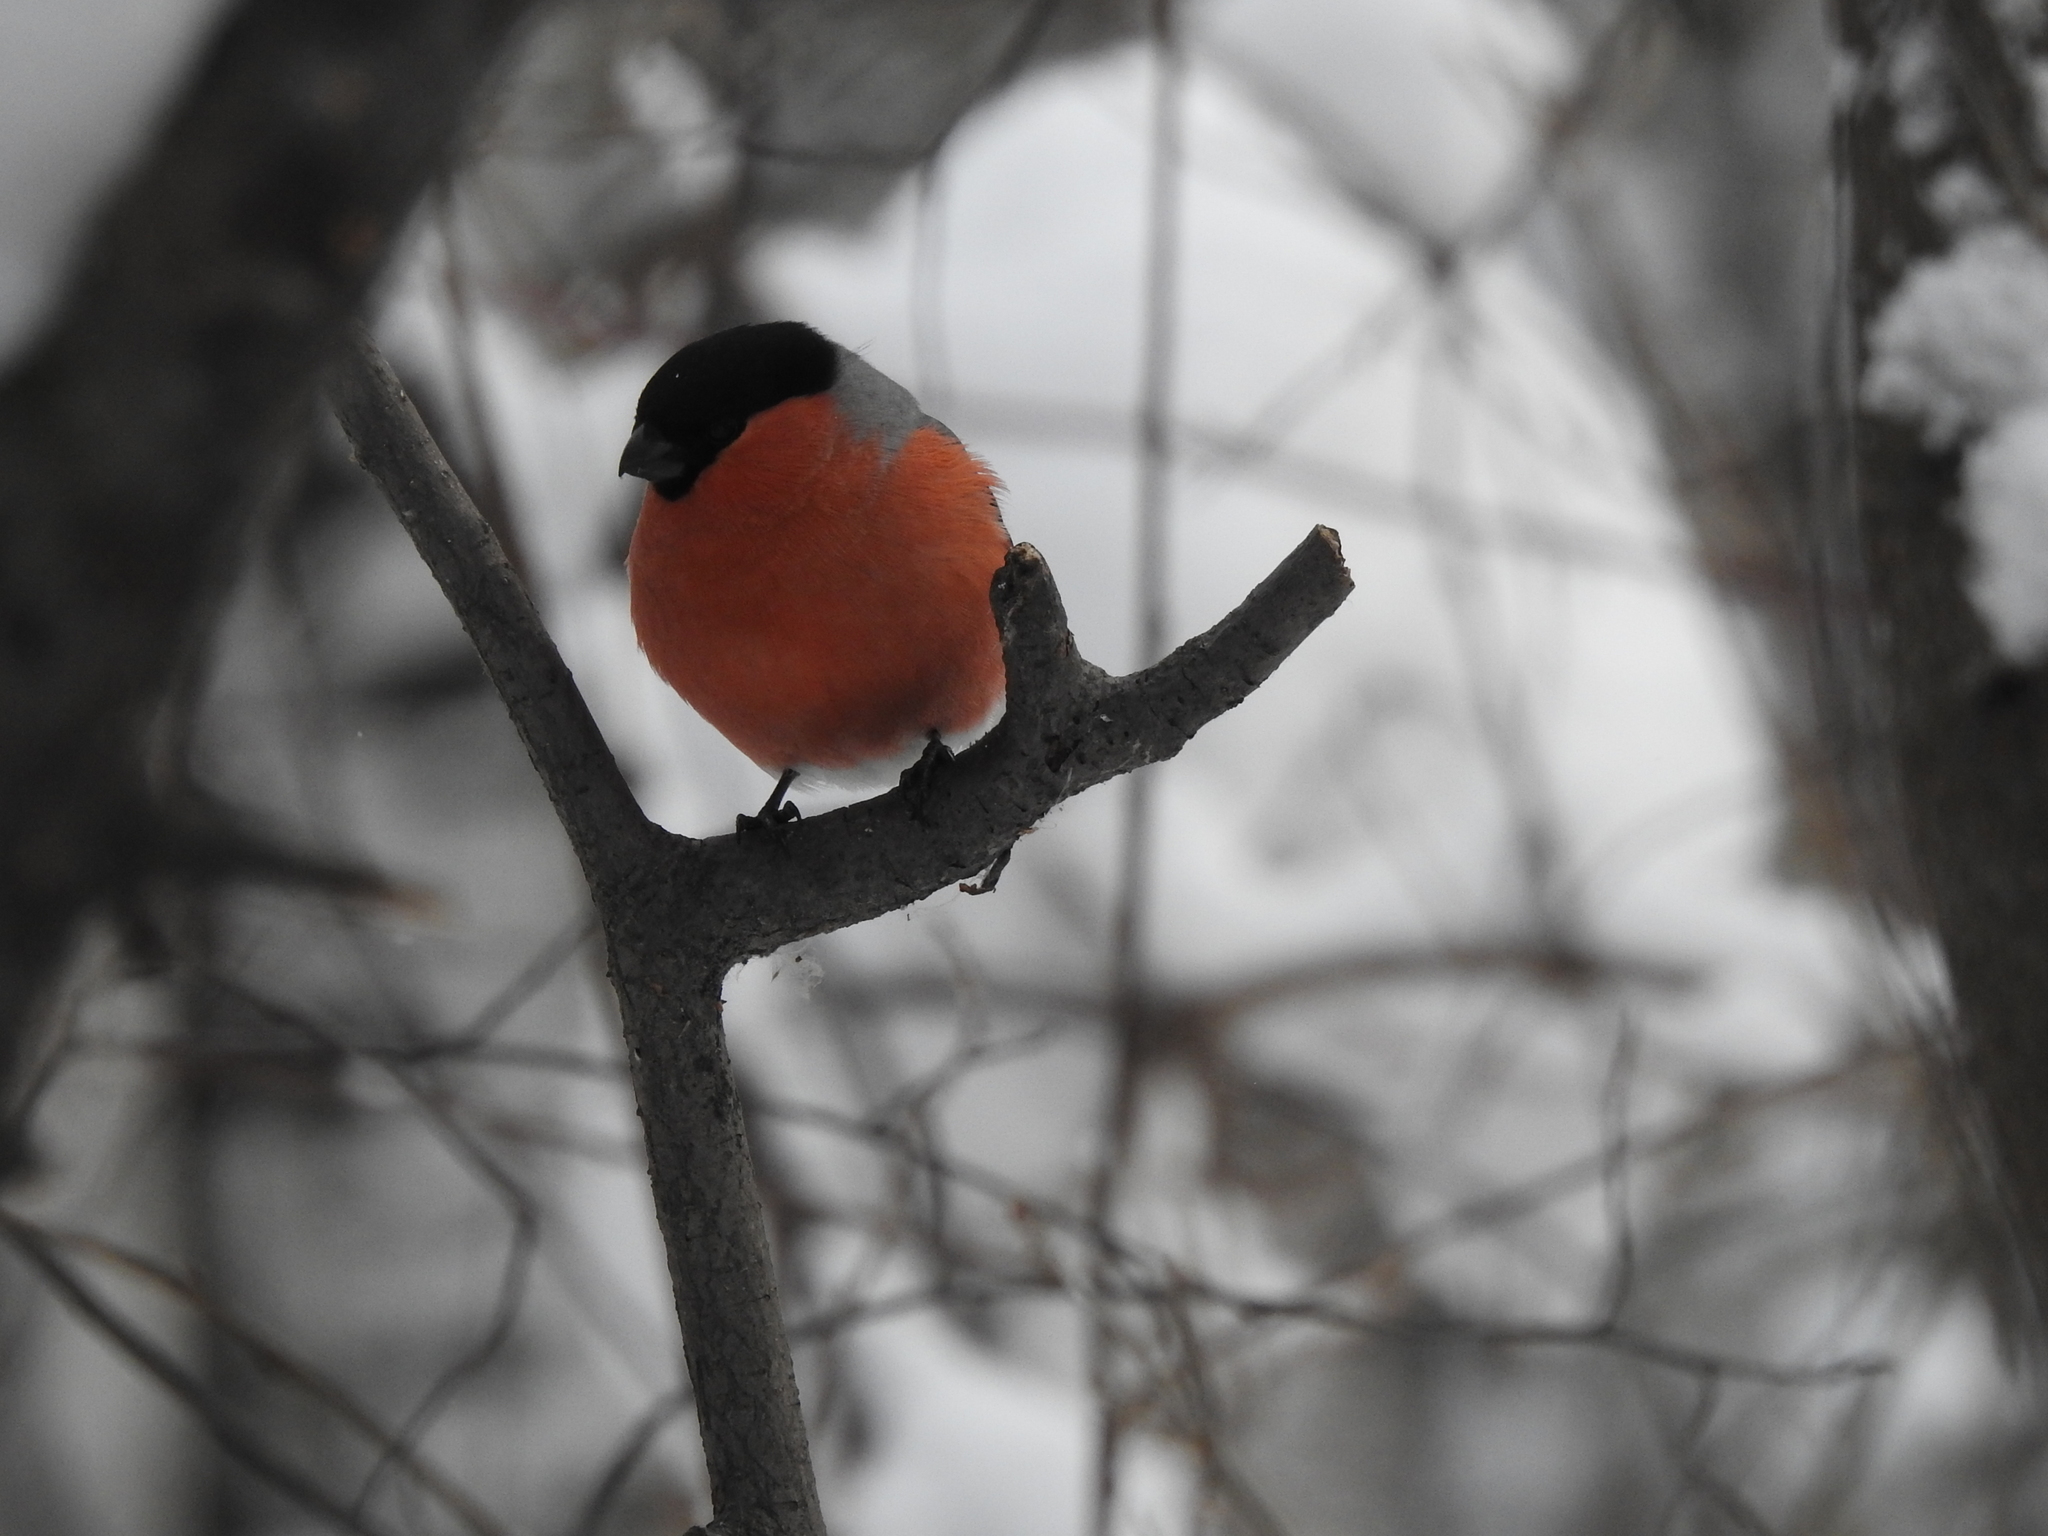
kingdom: Animalia
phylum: Chordata
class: Aves
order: Passeriformes
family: Fringillidae
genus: Pyrrhula
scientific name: Pyrrhula pyrrhula
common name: Eurasian bullfinch
